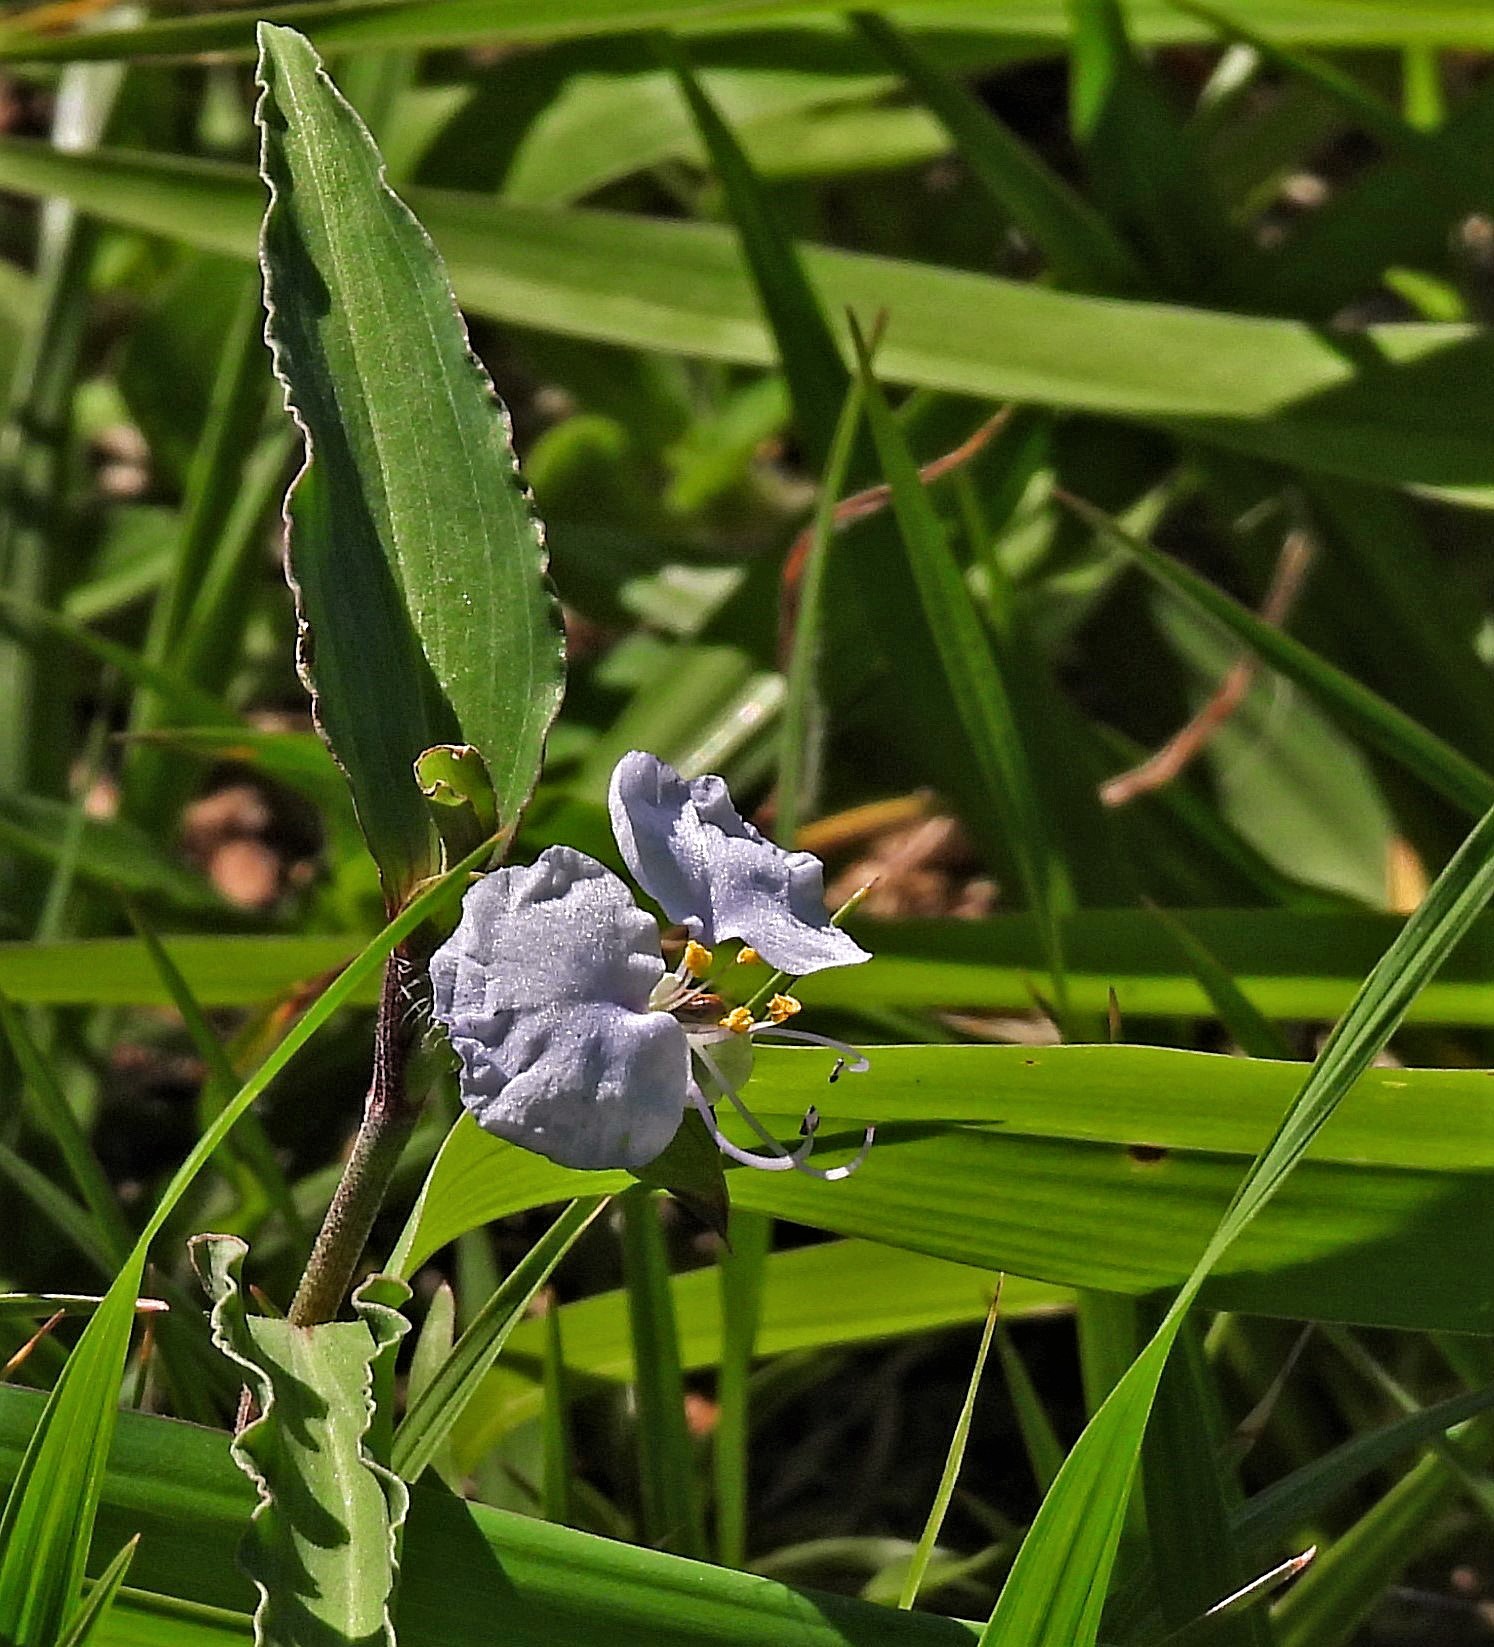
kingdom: Plantae
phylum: Tracheophyta
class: Liliopsida
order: Commelinales
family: Commelinaceae
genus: Commelina
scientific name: Commelina erecta
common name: Blousel blommetjie
